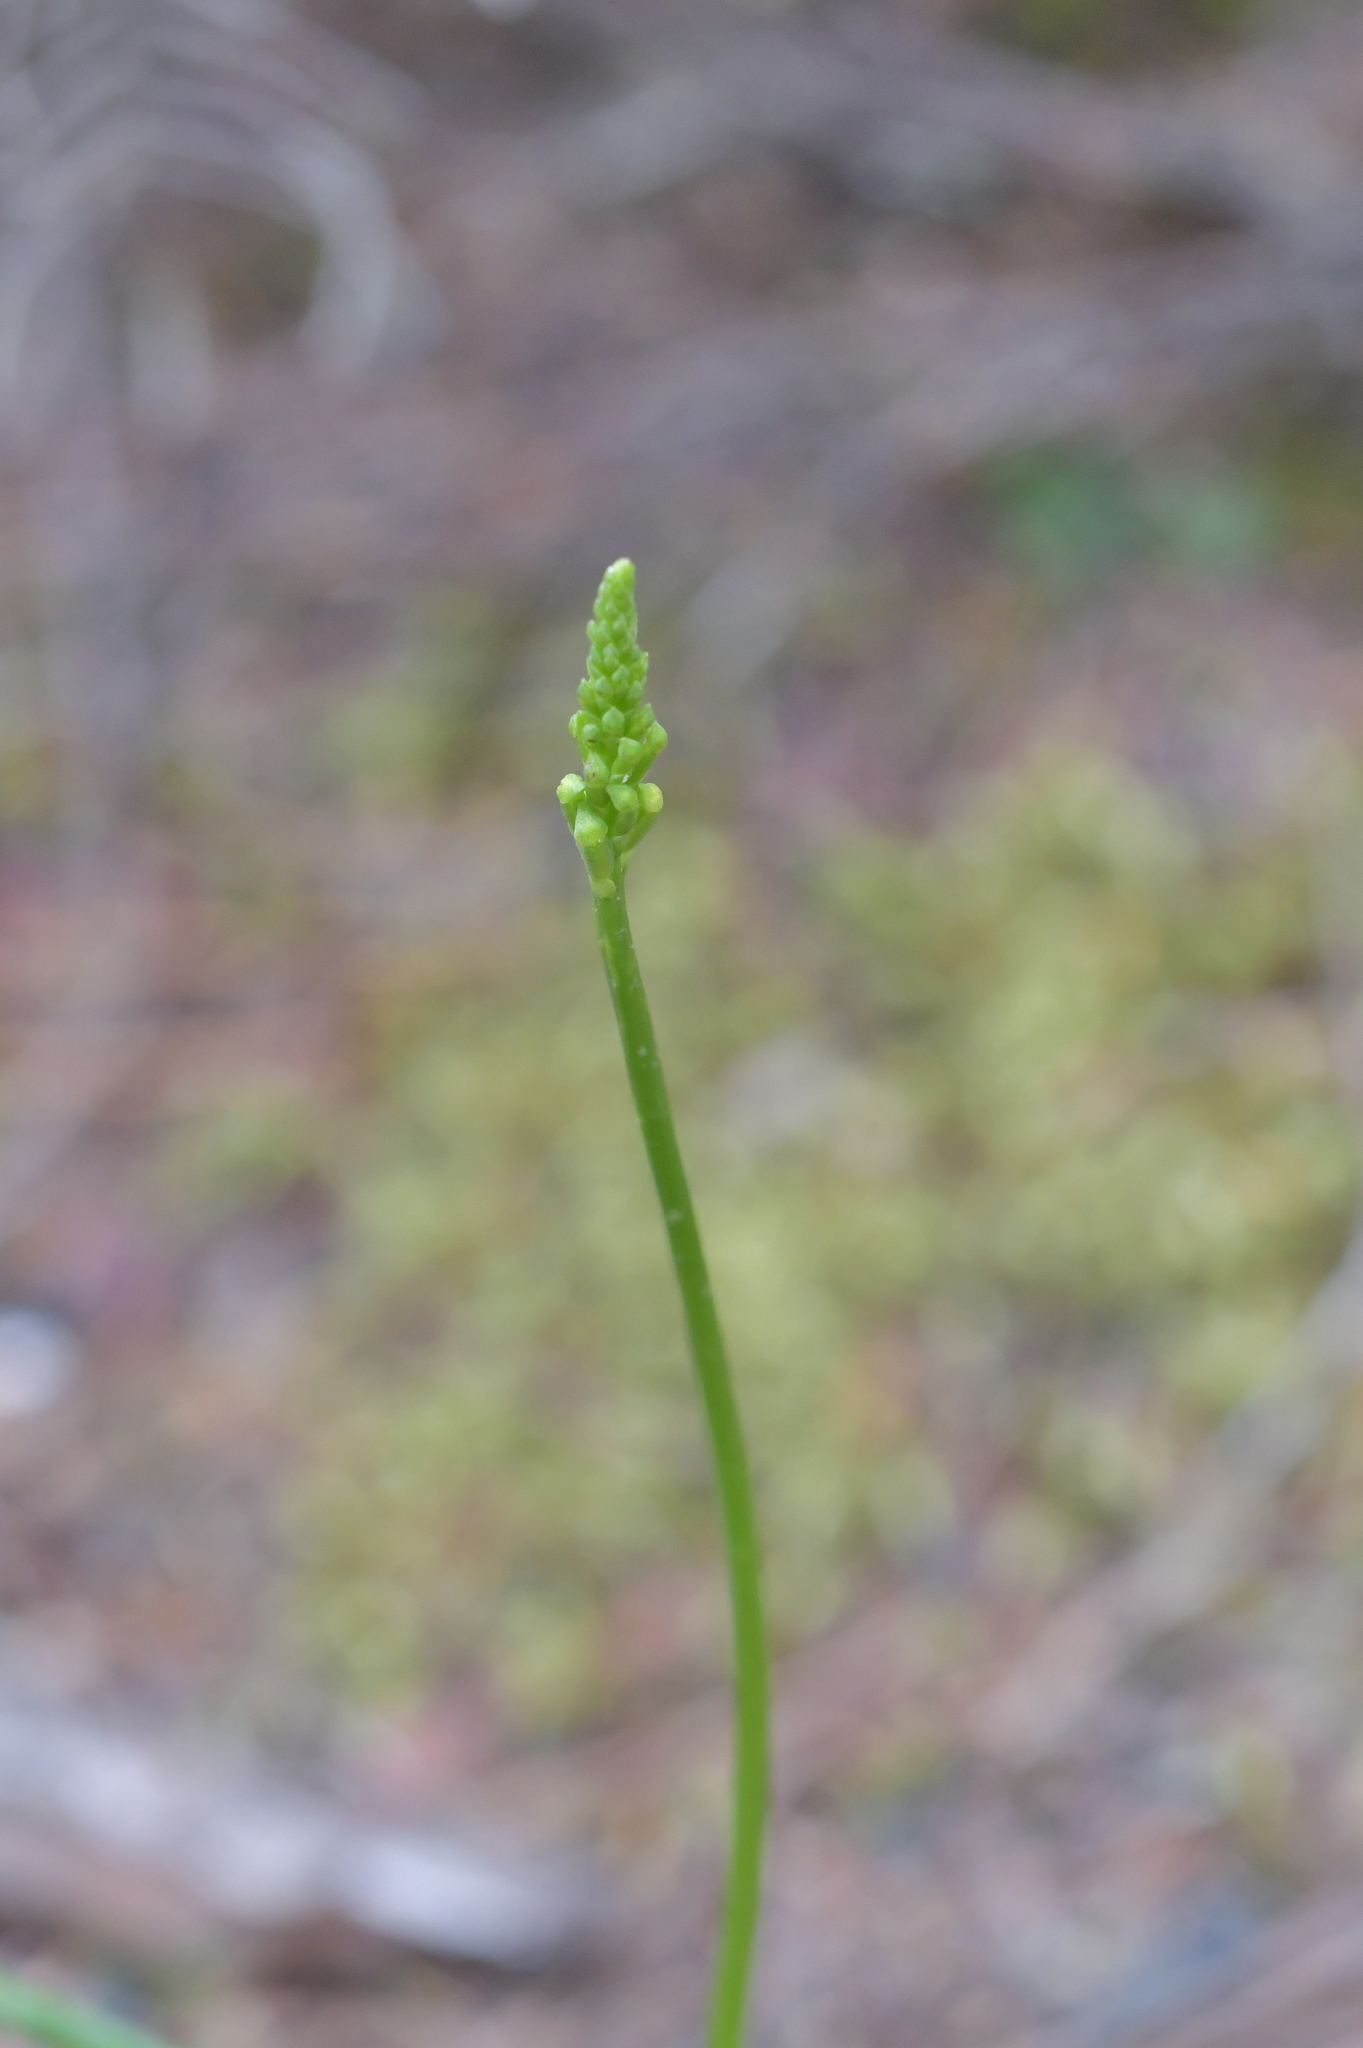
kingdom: Plantae
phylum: Tracheophyta
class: Liliopsida
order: Asparagales
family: Orchidaceae
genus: Microtis
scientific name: Microtis unifolia
